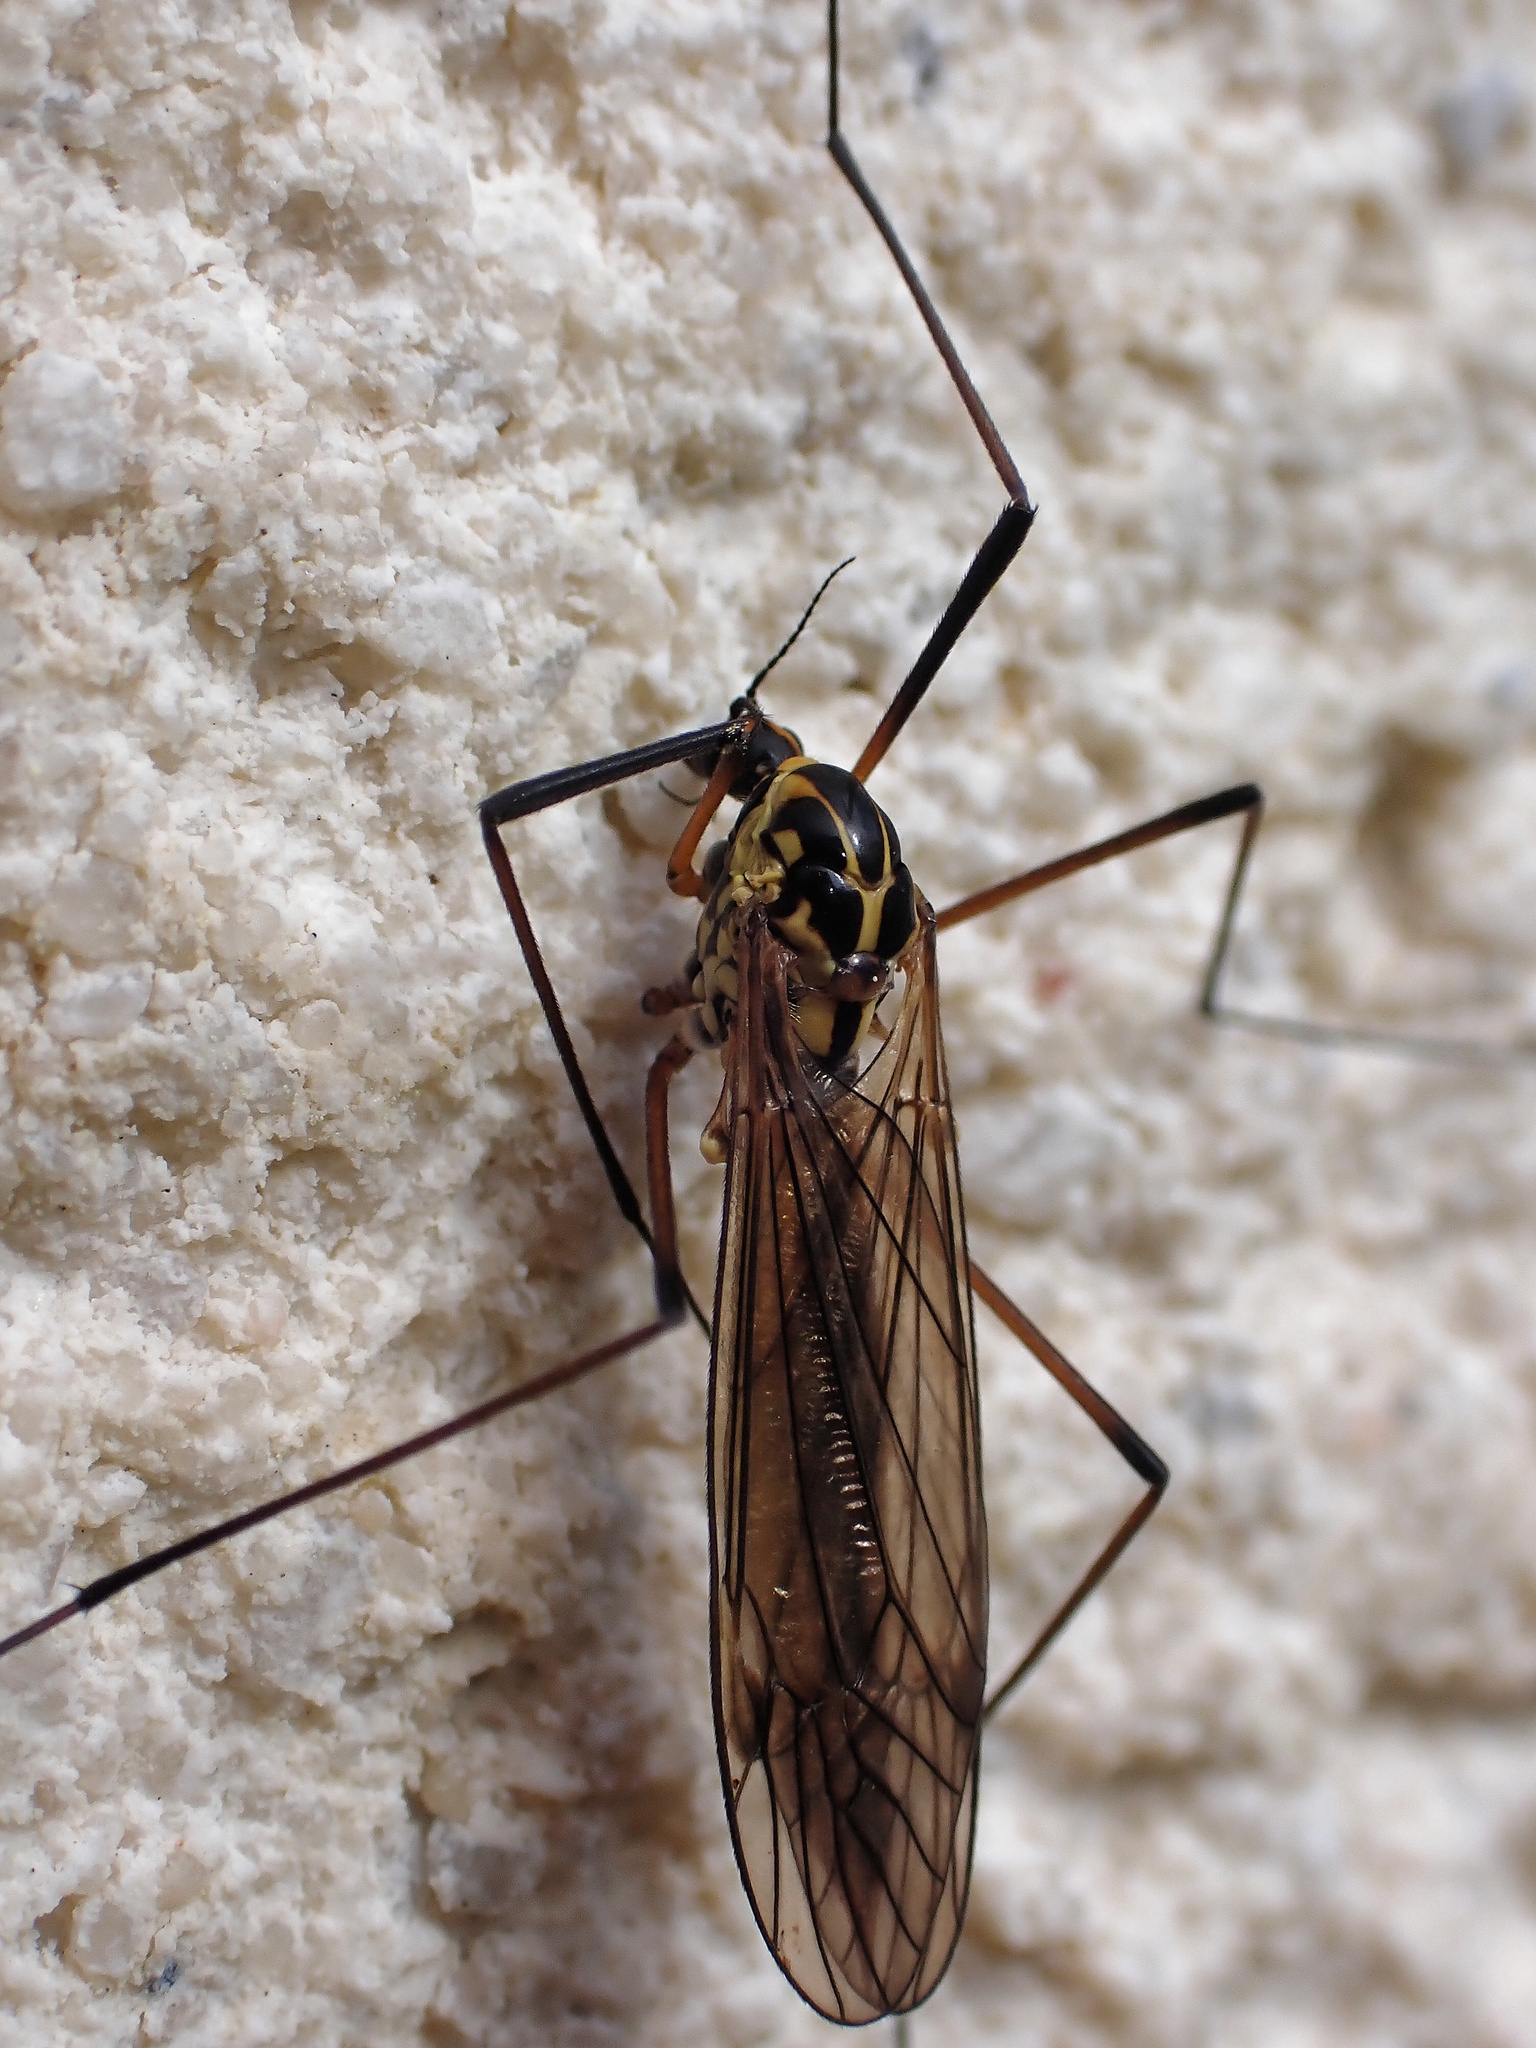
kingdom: Animalia
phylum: Arthropoda
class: Insecta
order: Diptera
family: Tipulidae
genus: Nephrotoma
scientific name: Nephrotoma appendiculata
